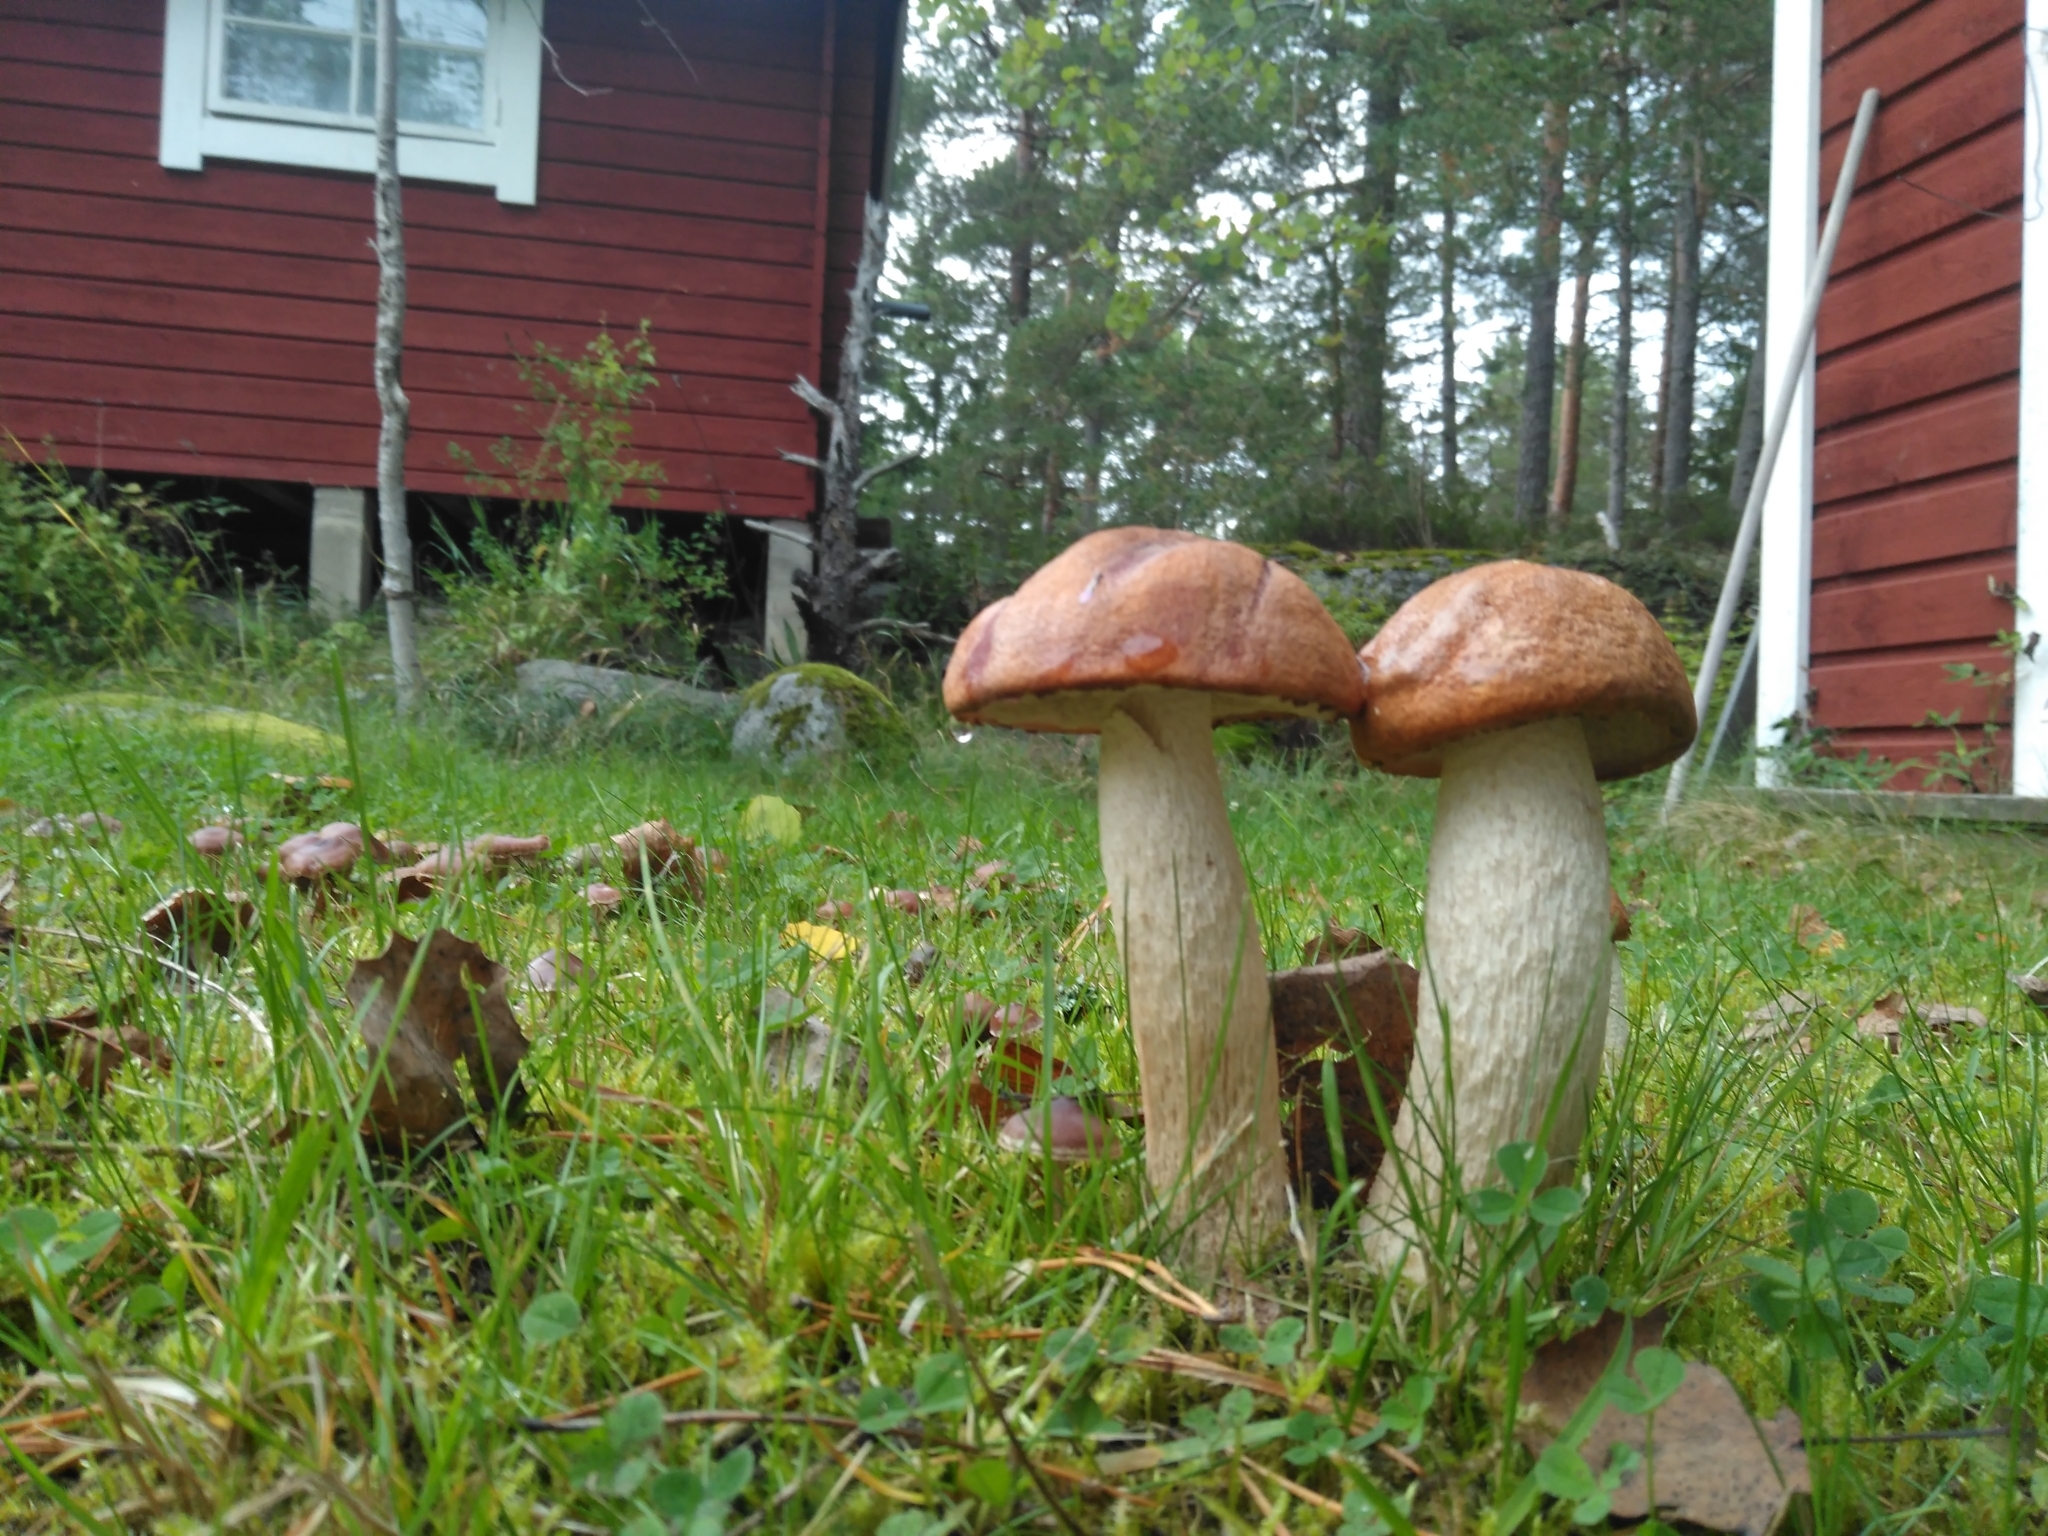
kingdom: Fungi
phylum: Basidiomycota
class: Agaricomycetes
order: Boletales
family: Boletaceae
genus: Leccinum
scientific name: Leccinum albostipitatum
